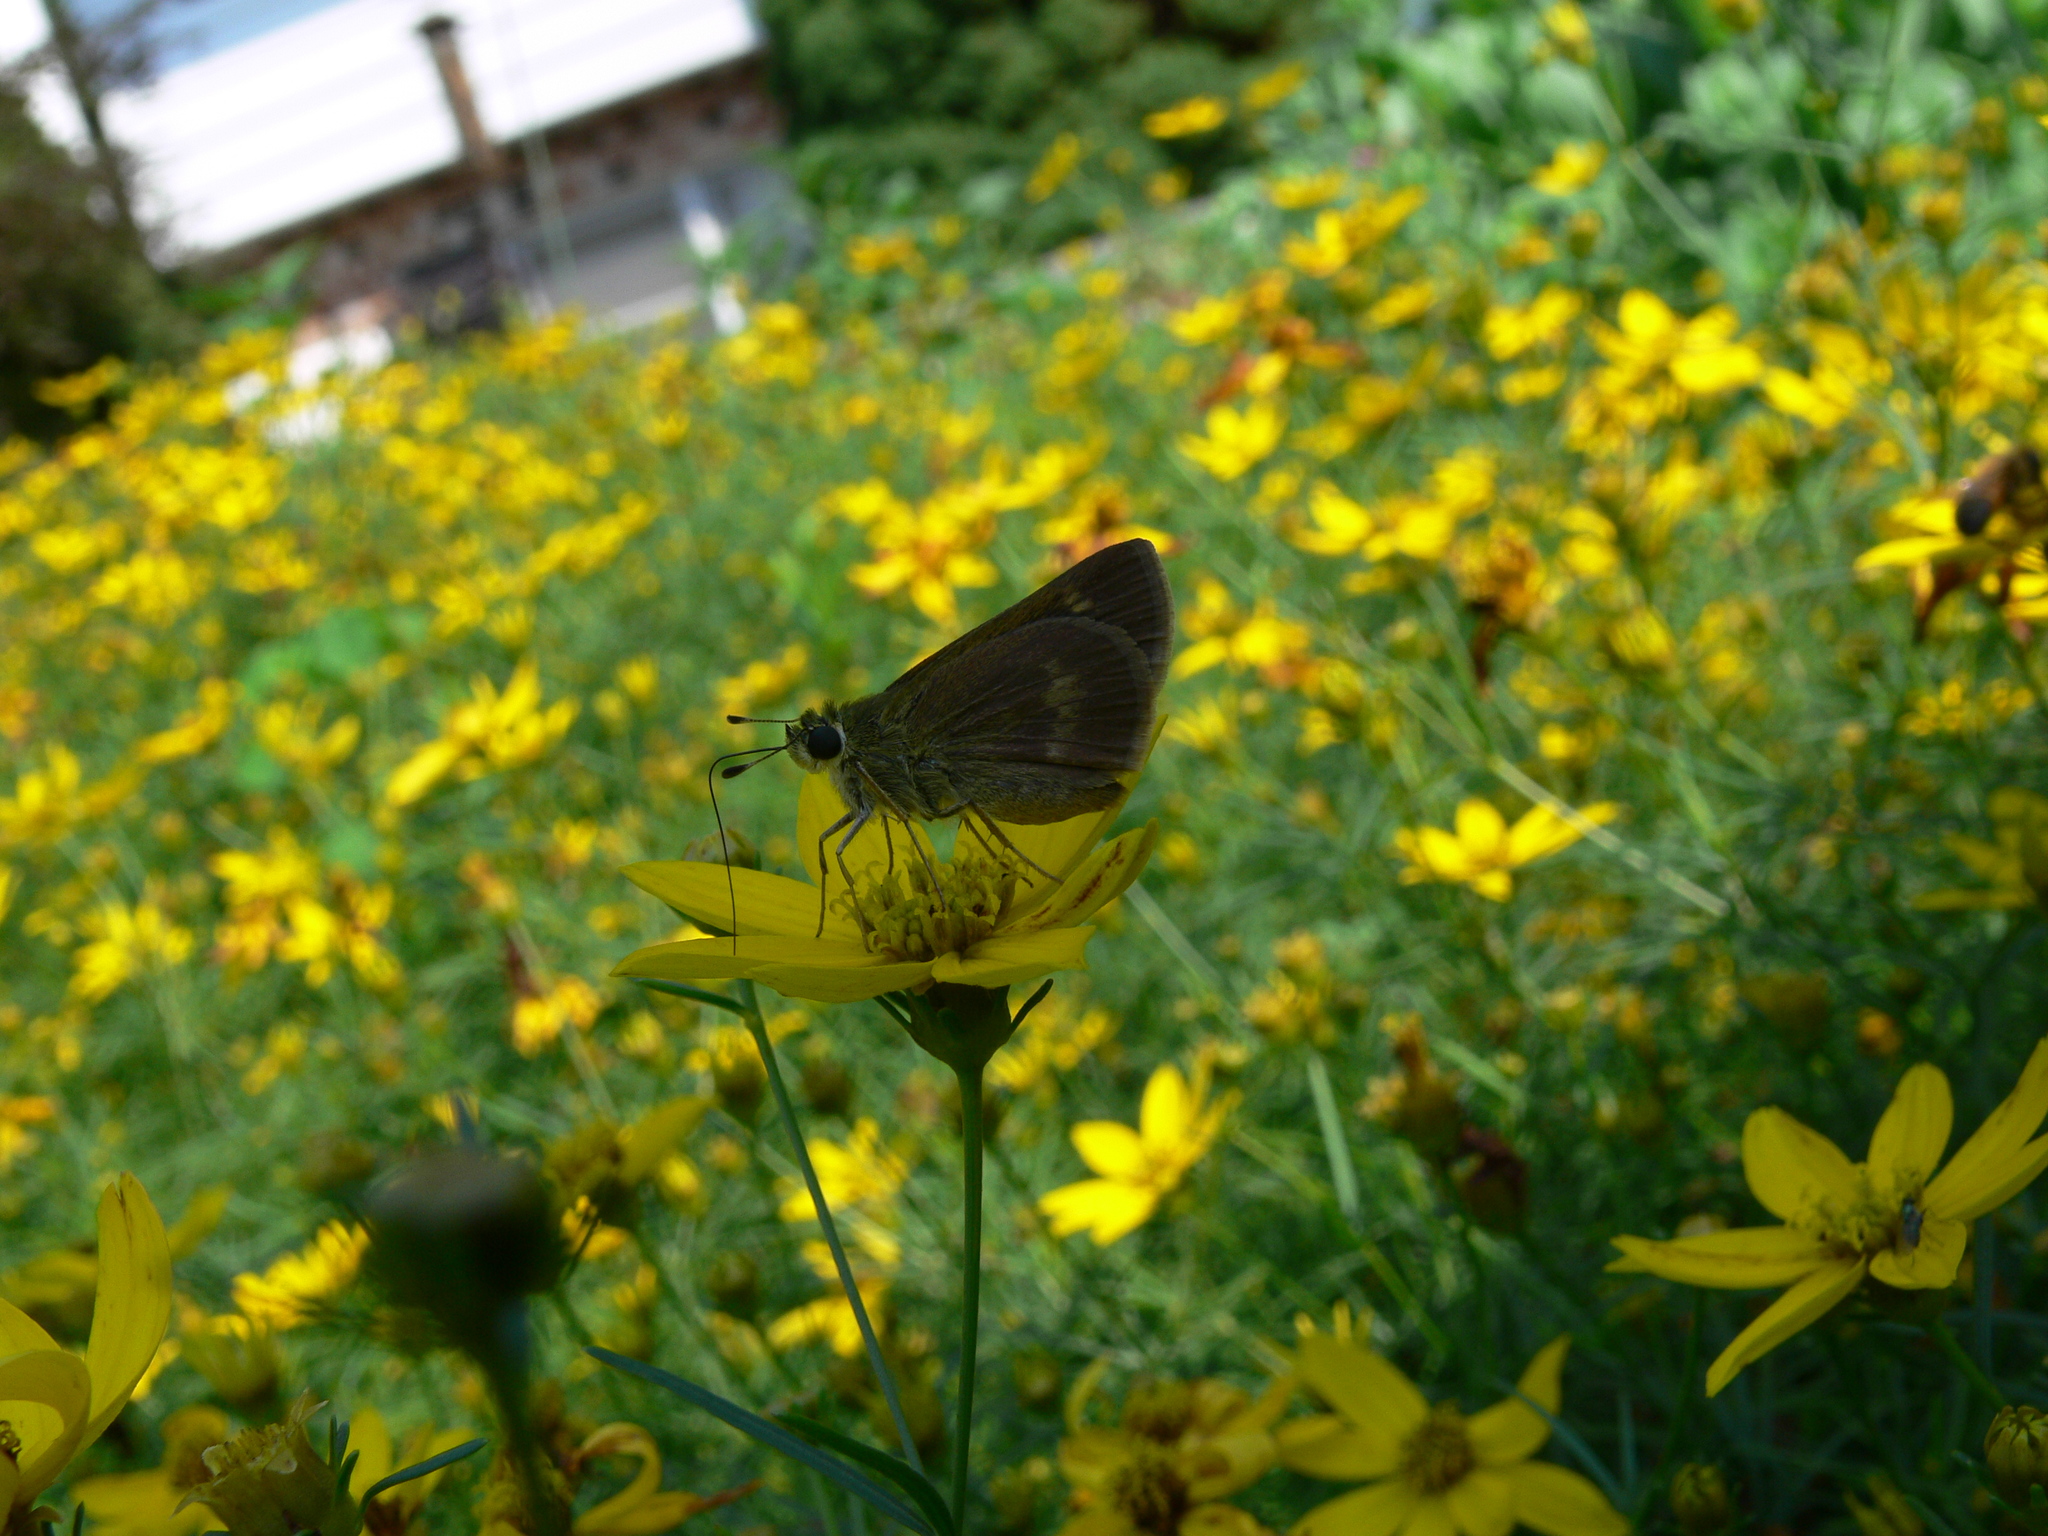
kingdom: Animalia
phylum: Arthropoda
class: Insecta
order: Lepidoptera
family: Hesperiidae
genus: Polites
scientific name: Polites egeremet
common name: Northern broken-dash
